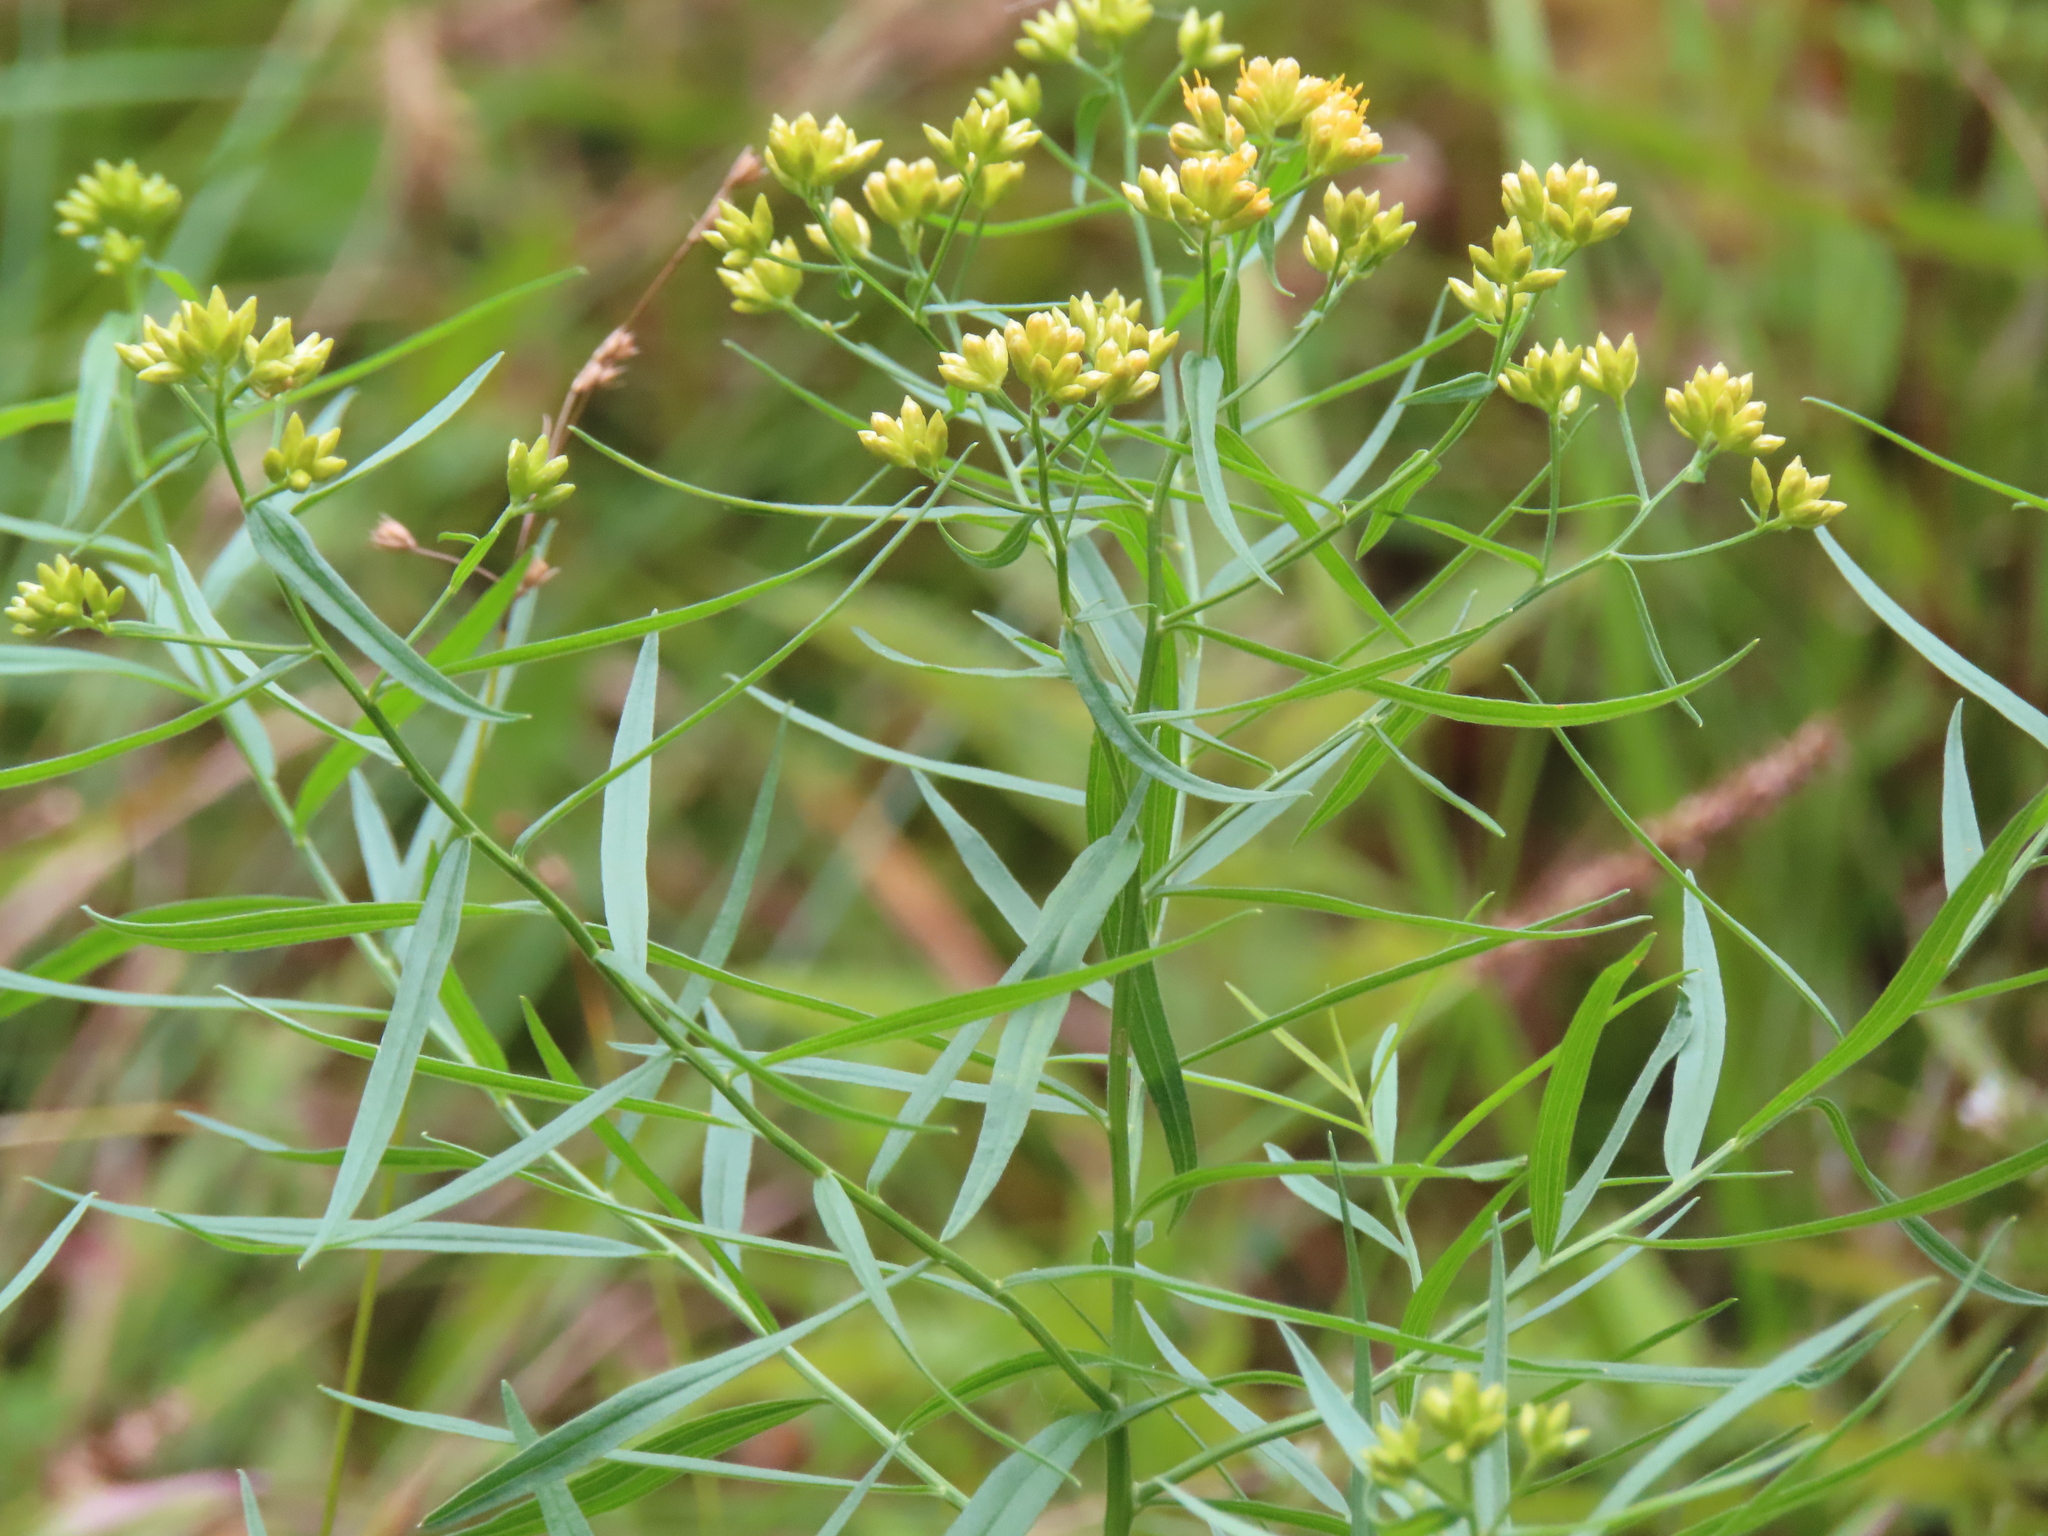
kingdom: Plantae
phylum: Tracheophyta
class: Magnoliopsida
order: Asterales
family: Asteraceae
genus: Euthamia
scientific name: Euthamia graminifolia
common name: Common goldentop
